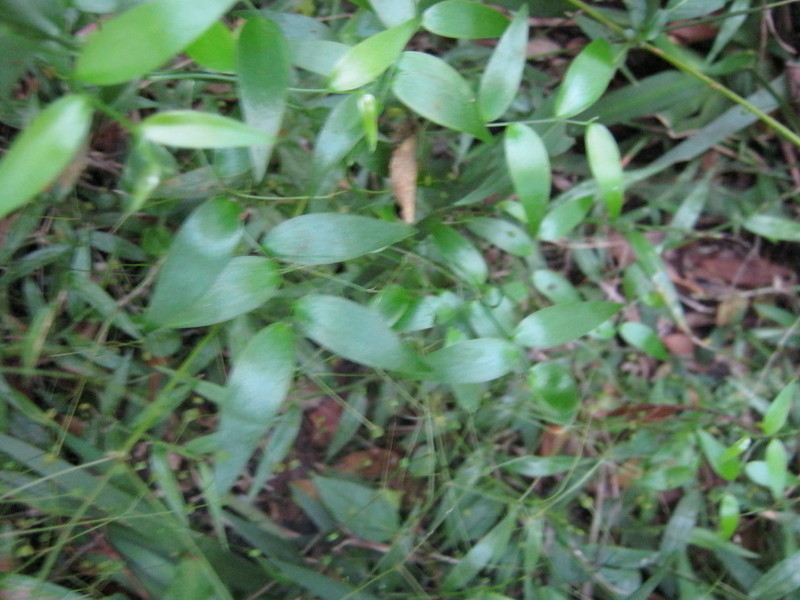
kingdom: Plantae
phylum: Tracheophyta
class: Liliopsida
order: Asparagales
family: Asparagaceae
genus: Asparagus
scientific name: Asparagus asparagoides
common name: African asparagus fern
